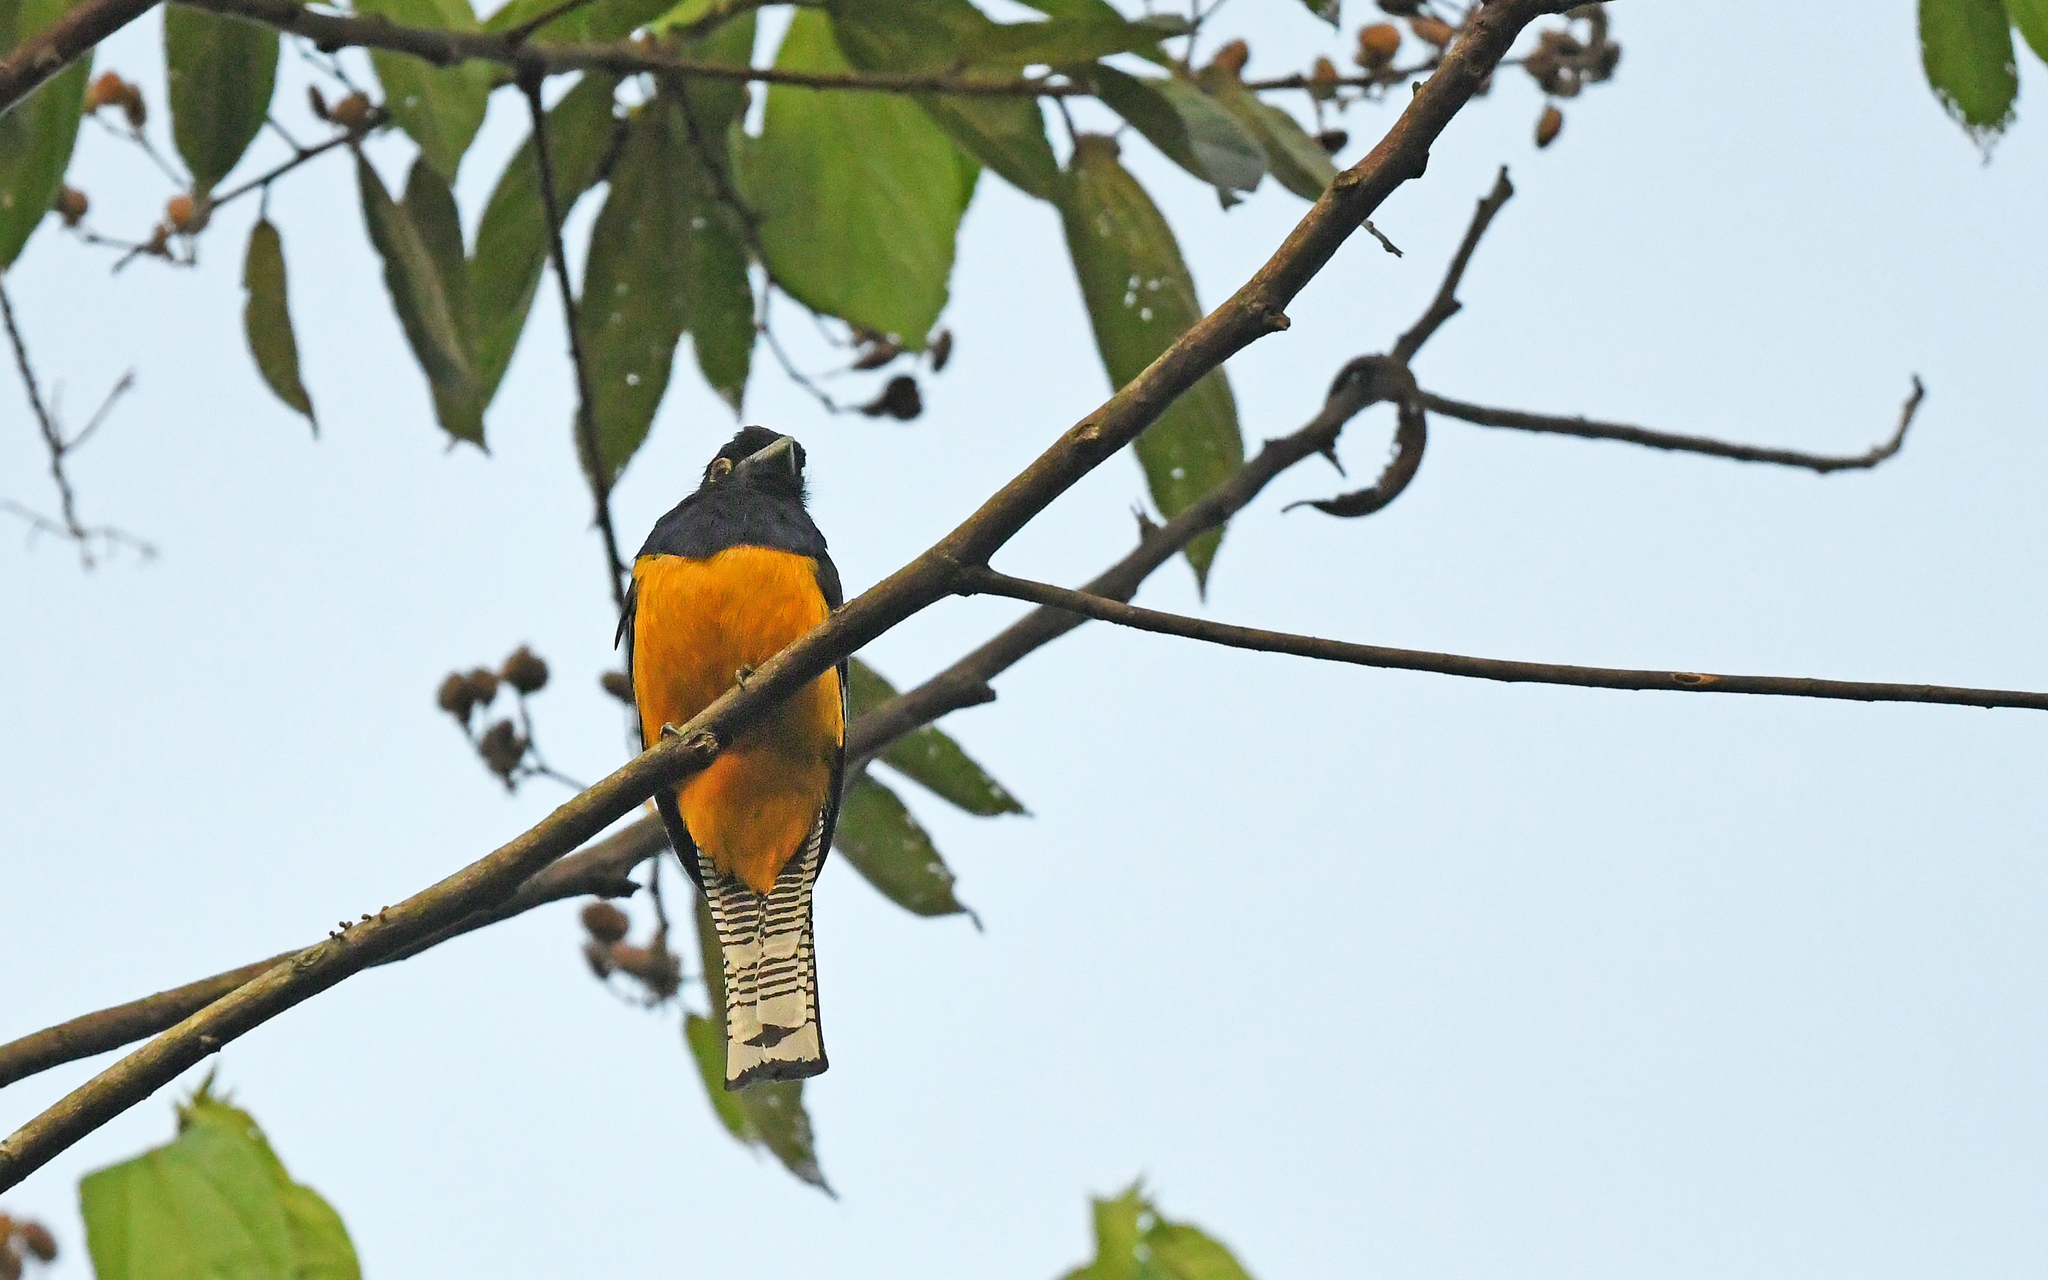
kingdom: Animalia
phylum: Chordata
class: Aves
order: Trogoniformes
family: Trogonidae
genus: Trogon
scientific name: Trogon caligatus
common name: Gartered trogon
